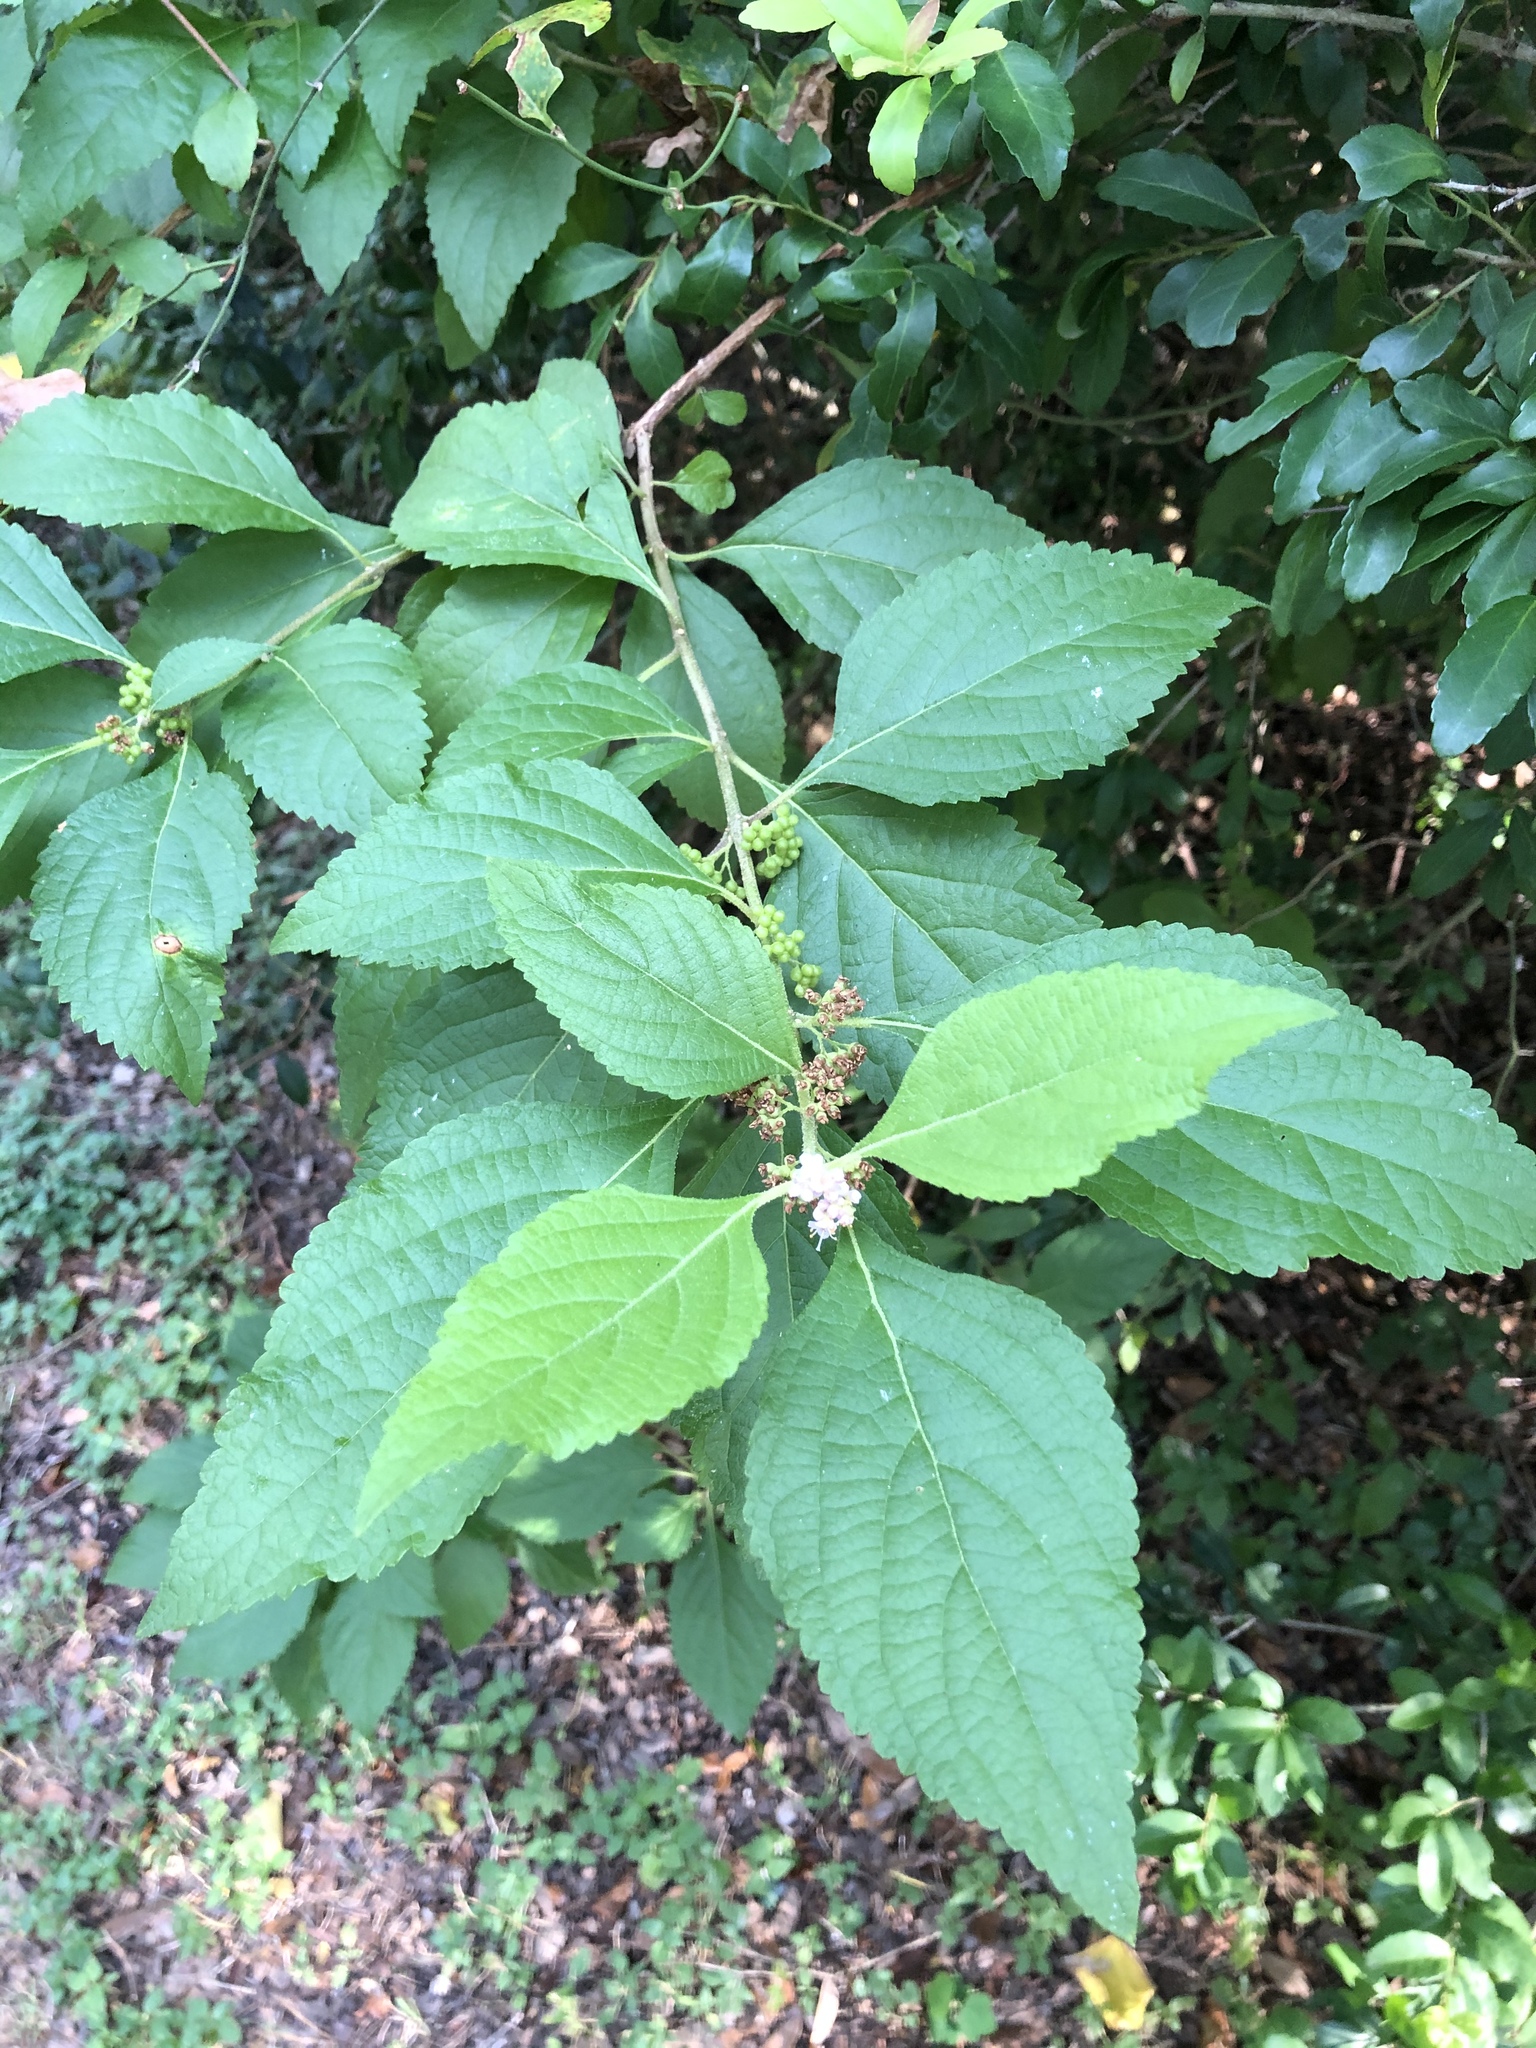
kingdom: Plantae
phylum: Tracheophyta
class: Magnoliopsida
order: Lamiales
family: Lamiaceae
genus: Callicarpa
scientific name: Callicarpa americana
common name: American beautyberry
